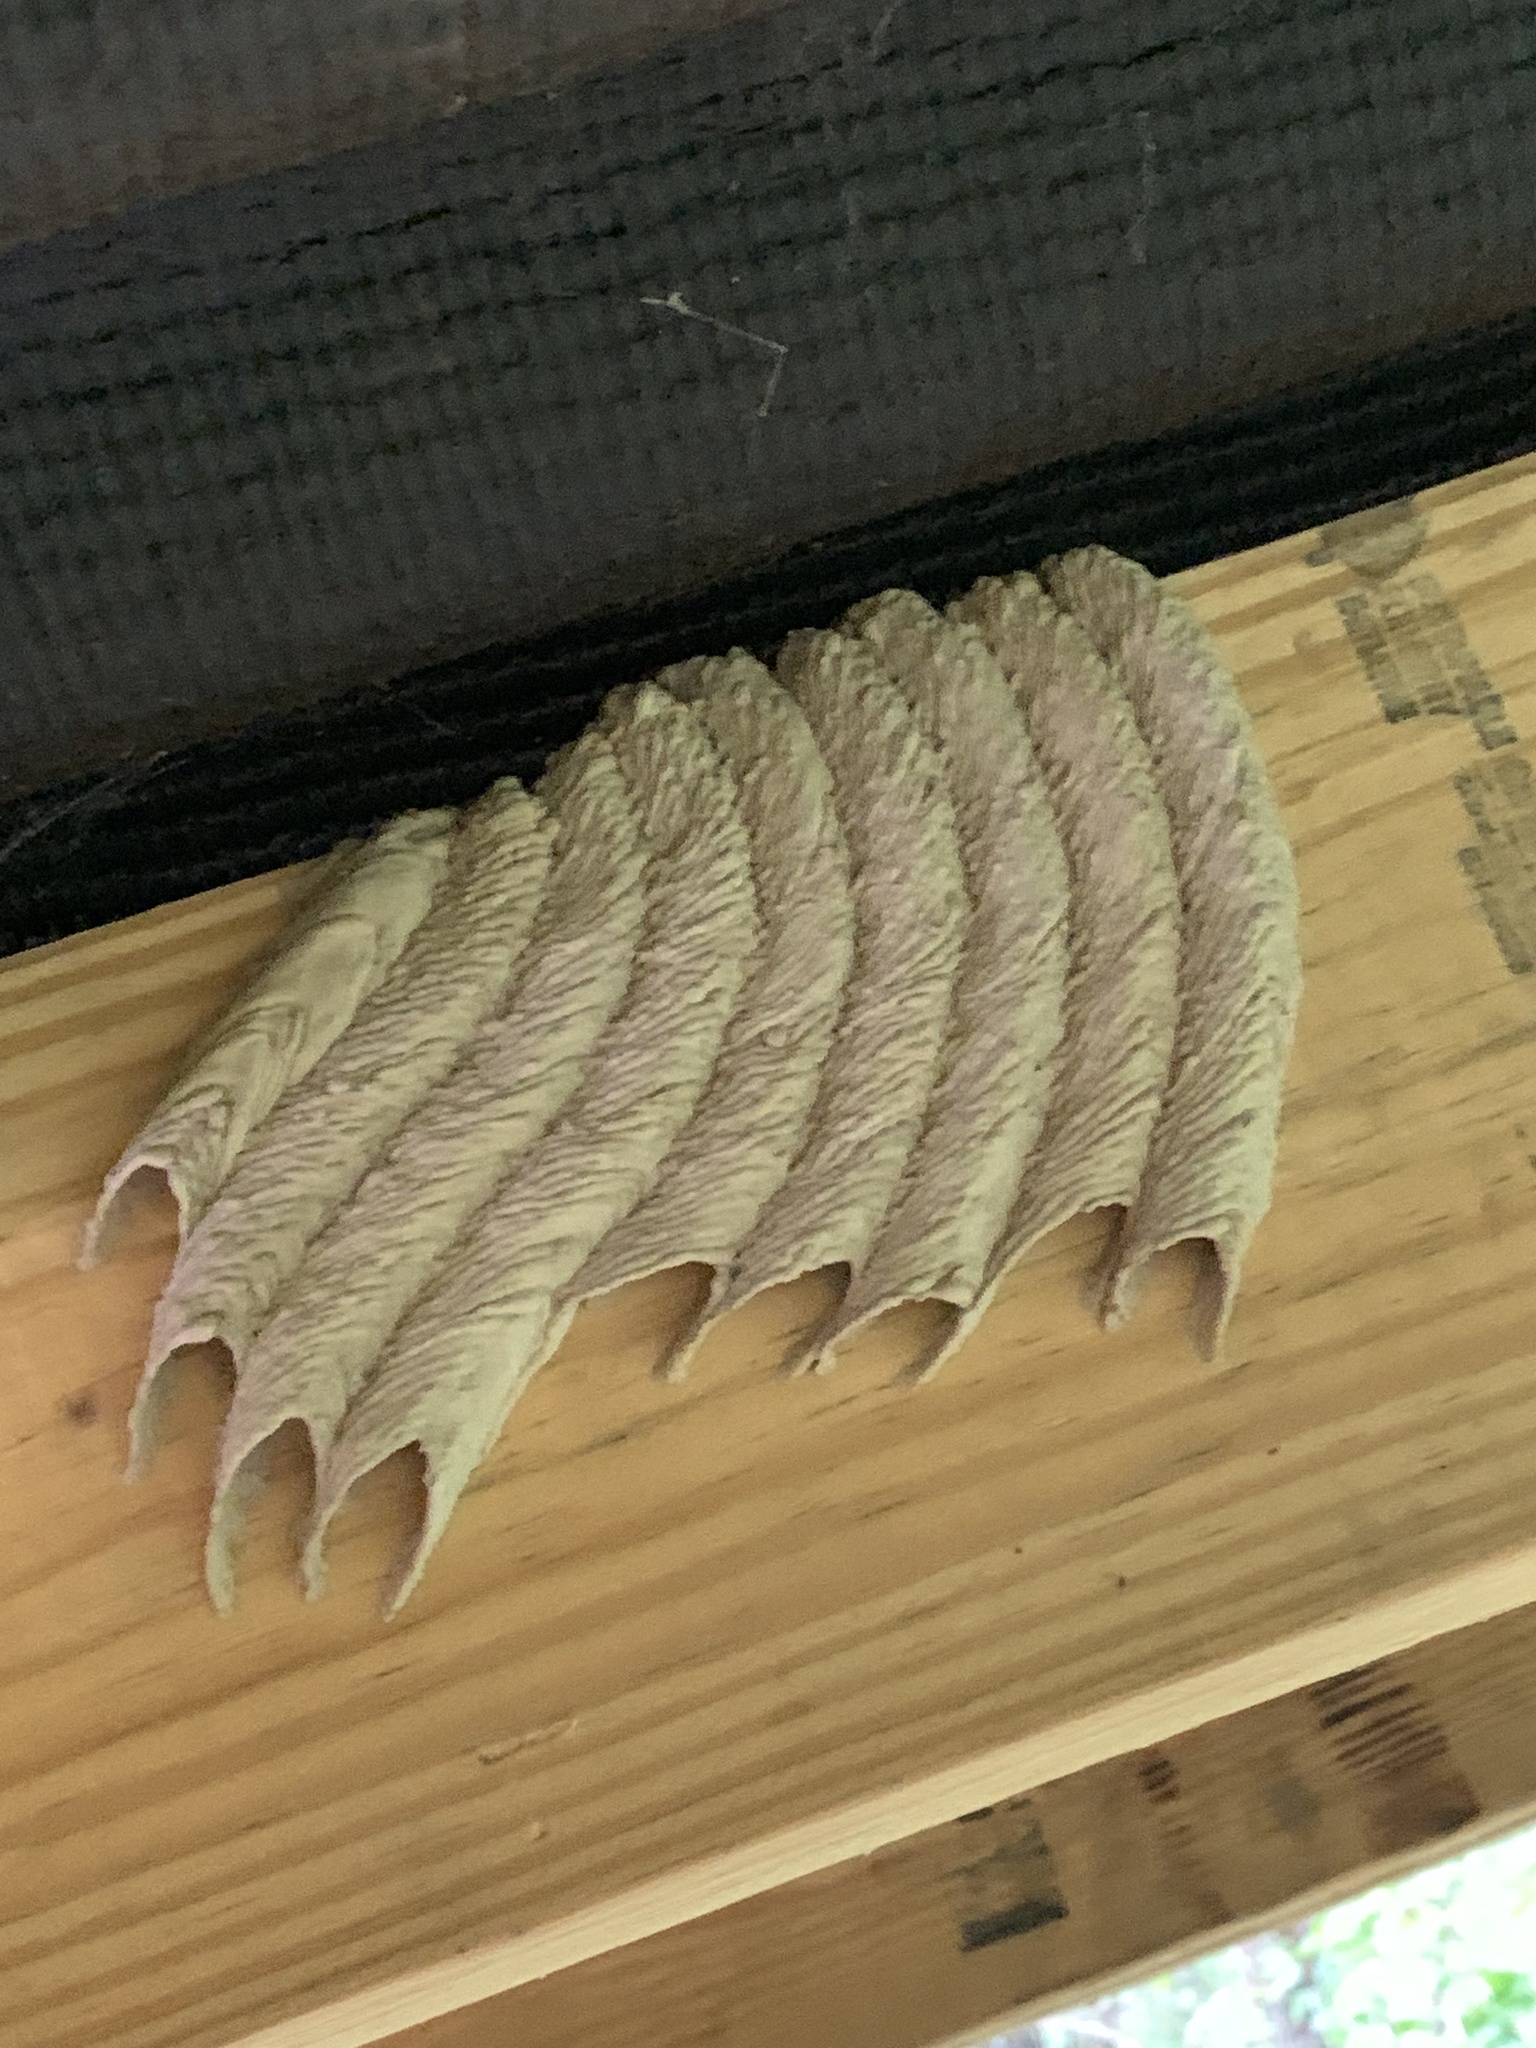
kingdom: Animalia
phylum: Arthropoda
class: Insecta
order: Hymenoptera
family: Crabronidae
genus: Trypoxylon
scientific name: Trypoxylon politum
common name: Organ-pipe mud-dauber wasp
